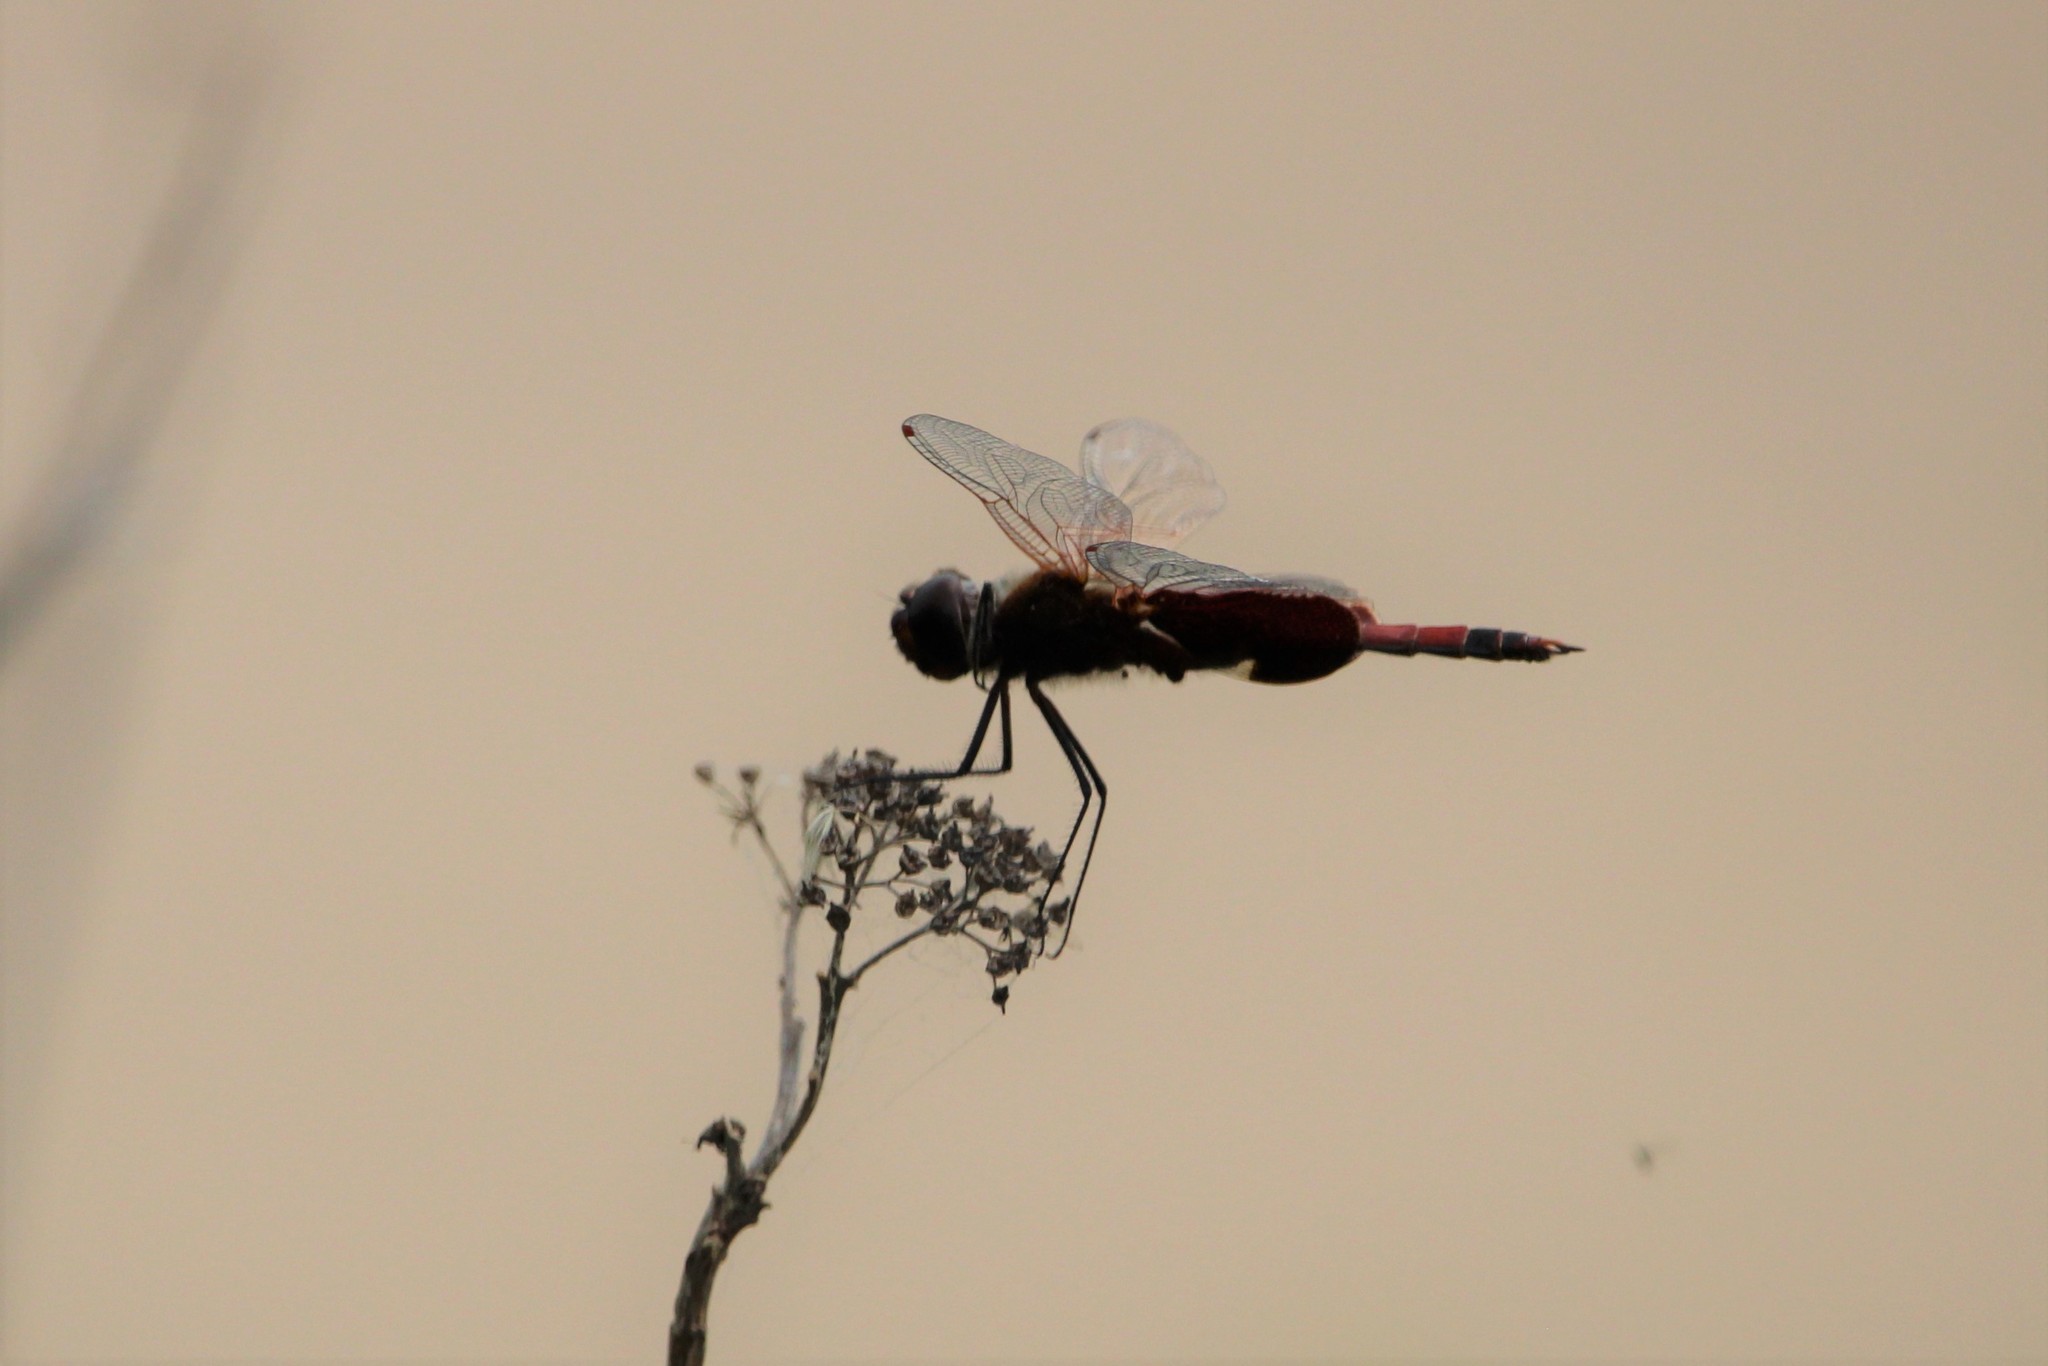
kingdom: Animalia
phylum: Arthropoda
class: Insecta
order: Odonata
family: Libellulidae
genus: Tramea
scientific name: Tramea carolina
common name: Carolina saddlebags
